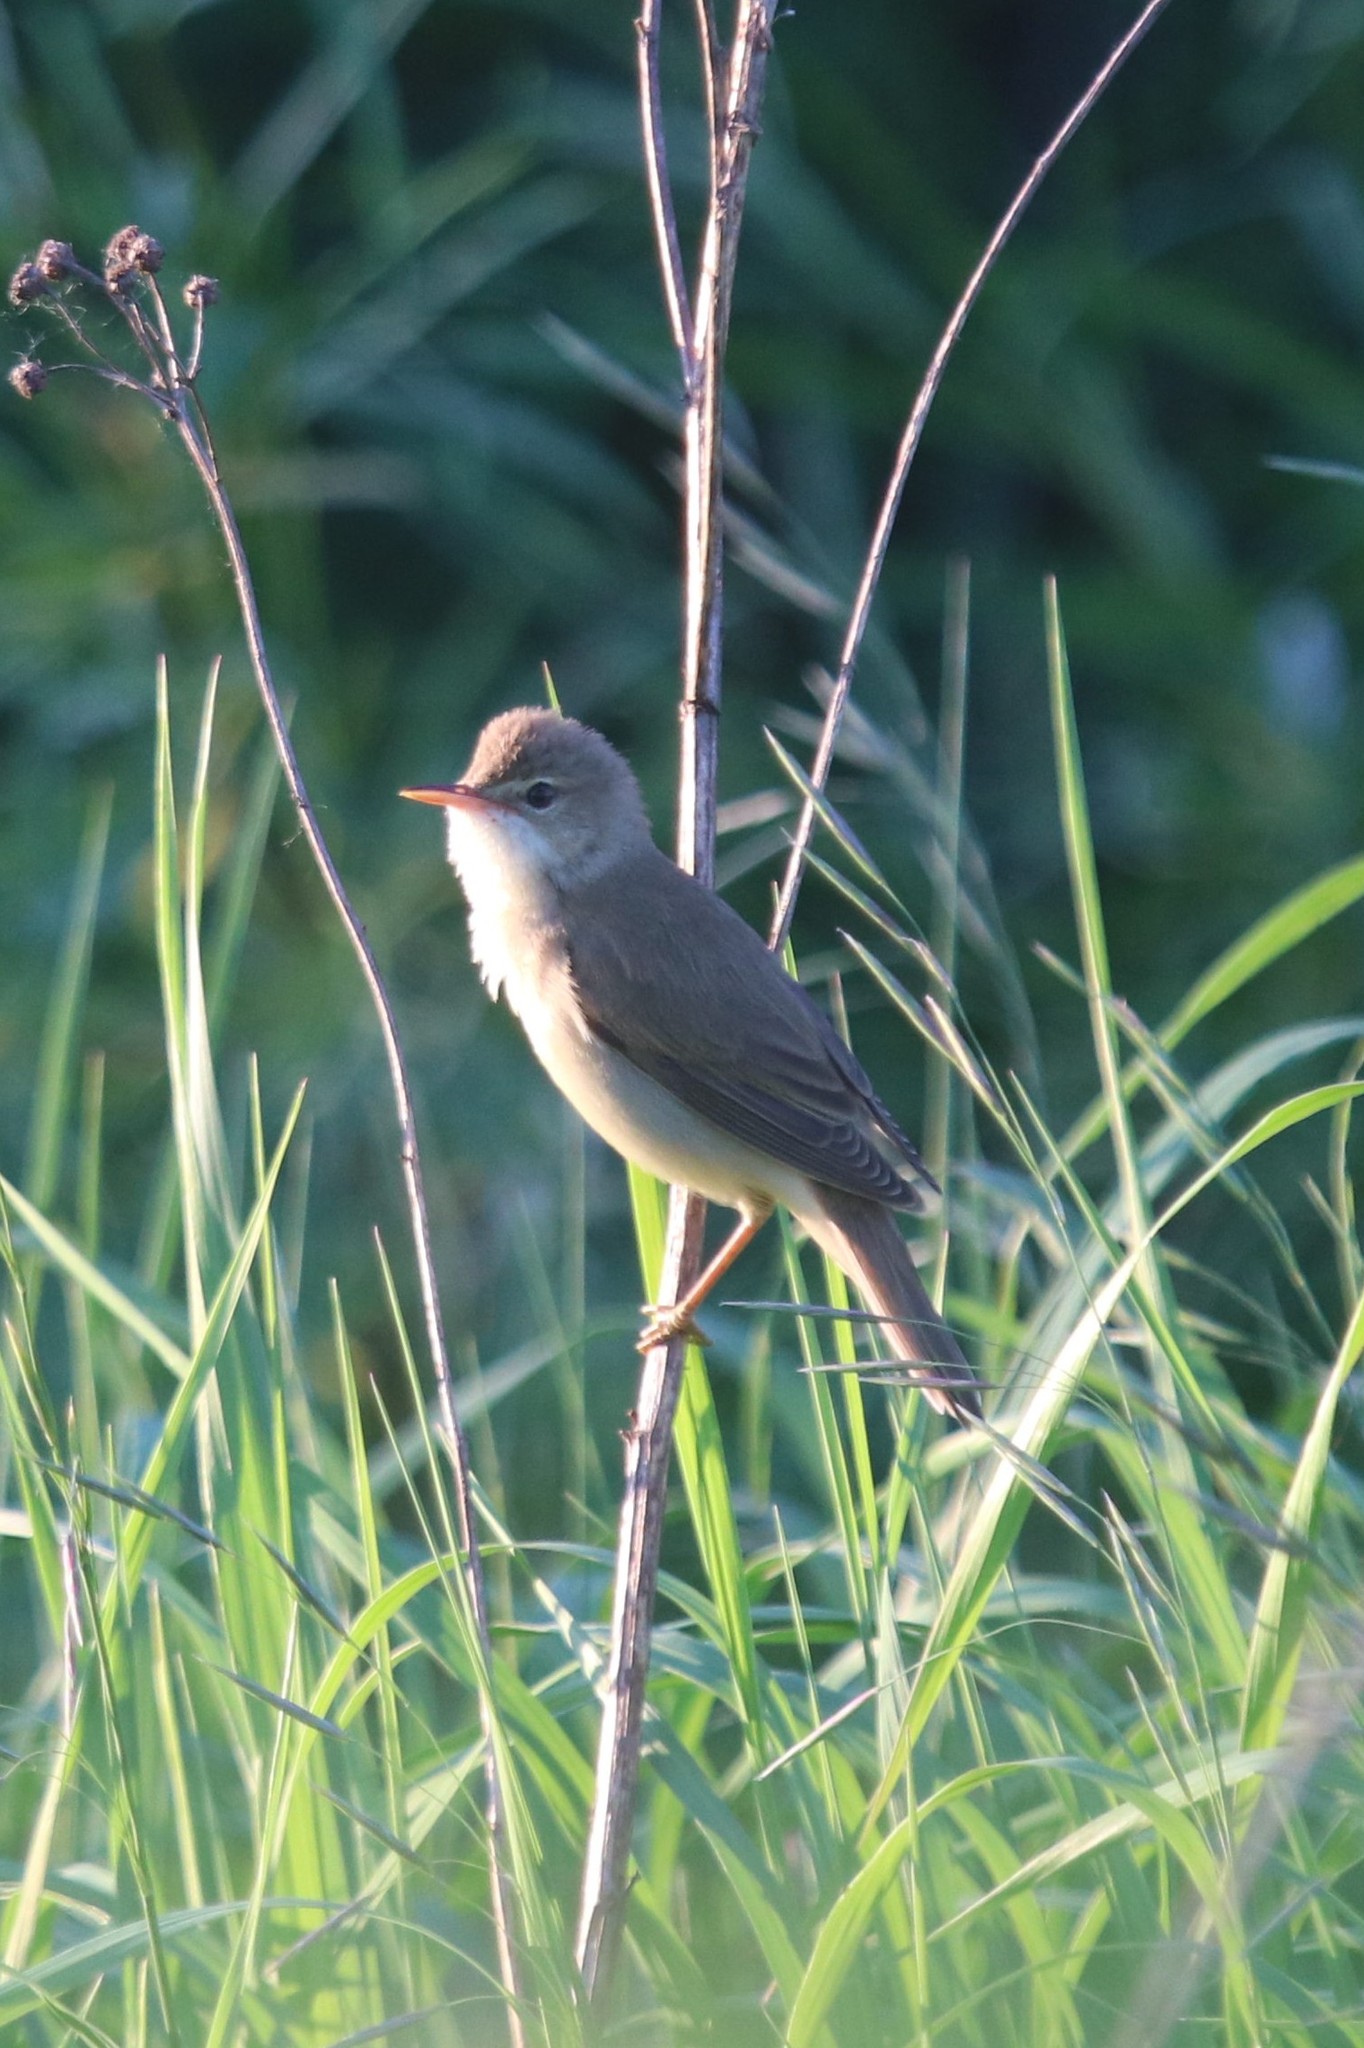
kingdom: Animalia
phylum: Chordata
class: Aves
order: Passeriformes
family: Acrocephalidae
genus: Acrocephalus
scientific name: Acrocephalus palustris
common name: Marsh warbler
